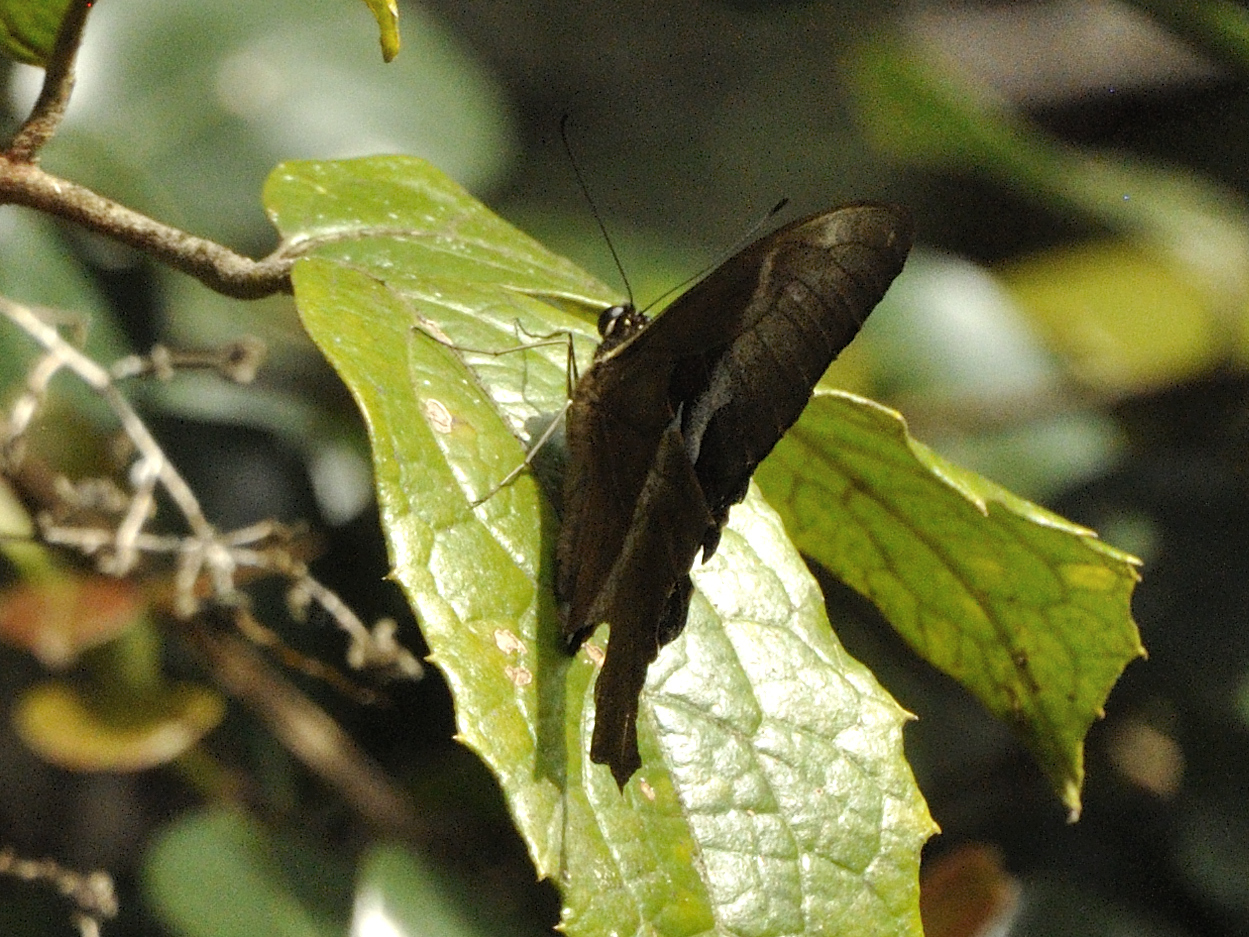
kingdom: Animalia
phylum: Arthropoda
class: Insecta
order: Lepidoptera
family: Papilionidae
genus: Papilio
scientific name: Papilio mangoura
